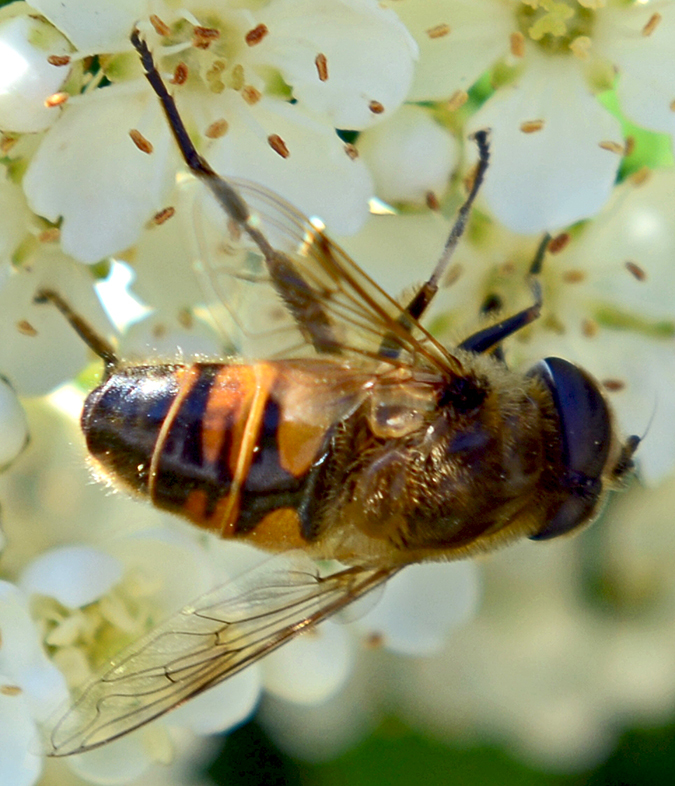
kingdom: Animalia
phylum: Arthropoda
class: Insecta
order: Diptera
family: Syrphidae
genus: Eristalis
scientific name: Eristalis tenax
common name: Drone fly
